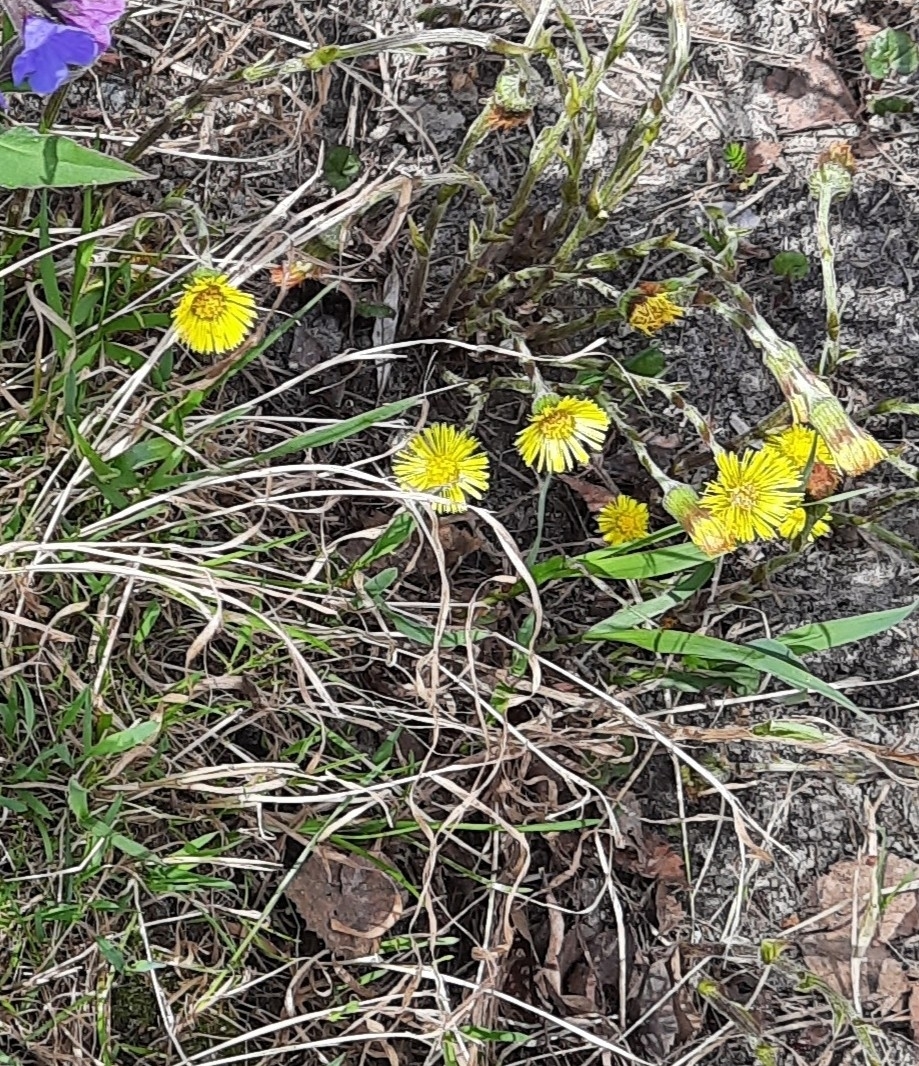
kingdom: Plantae
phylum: Tracheophyta
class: Magnoliopsida
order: Asterales
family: Asteraceae
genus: Tussilago
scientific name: Tussilago farfara
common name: Coltsfoot
